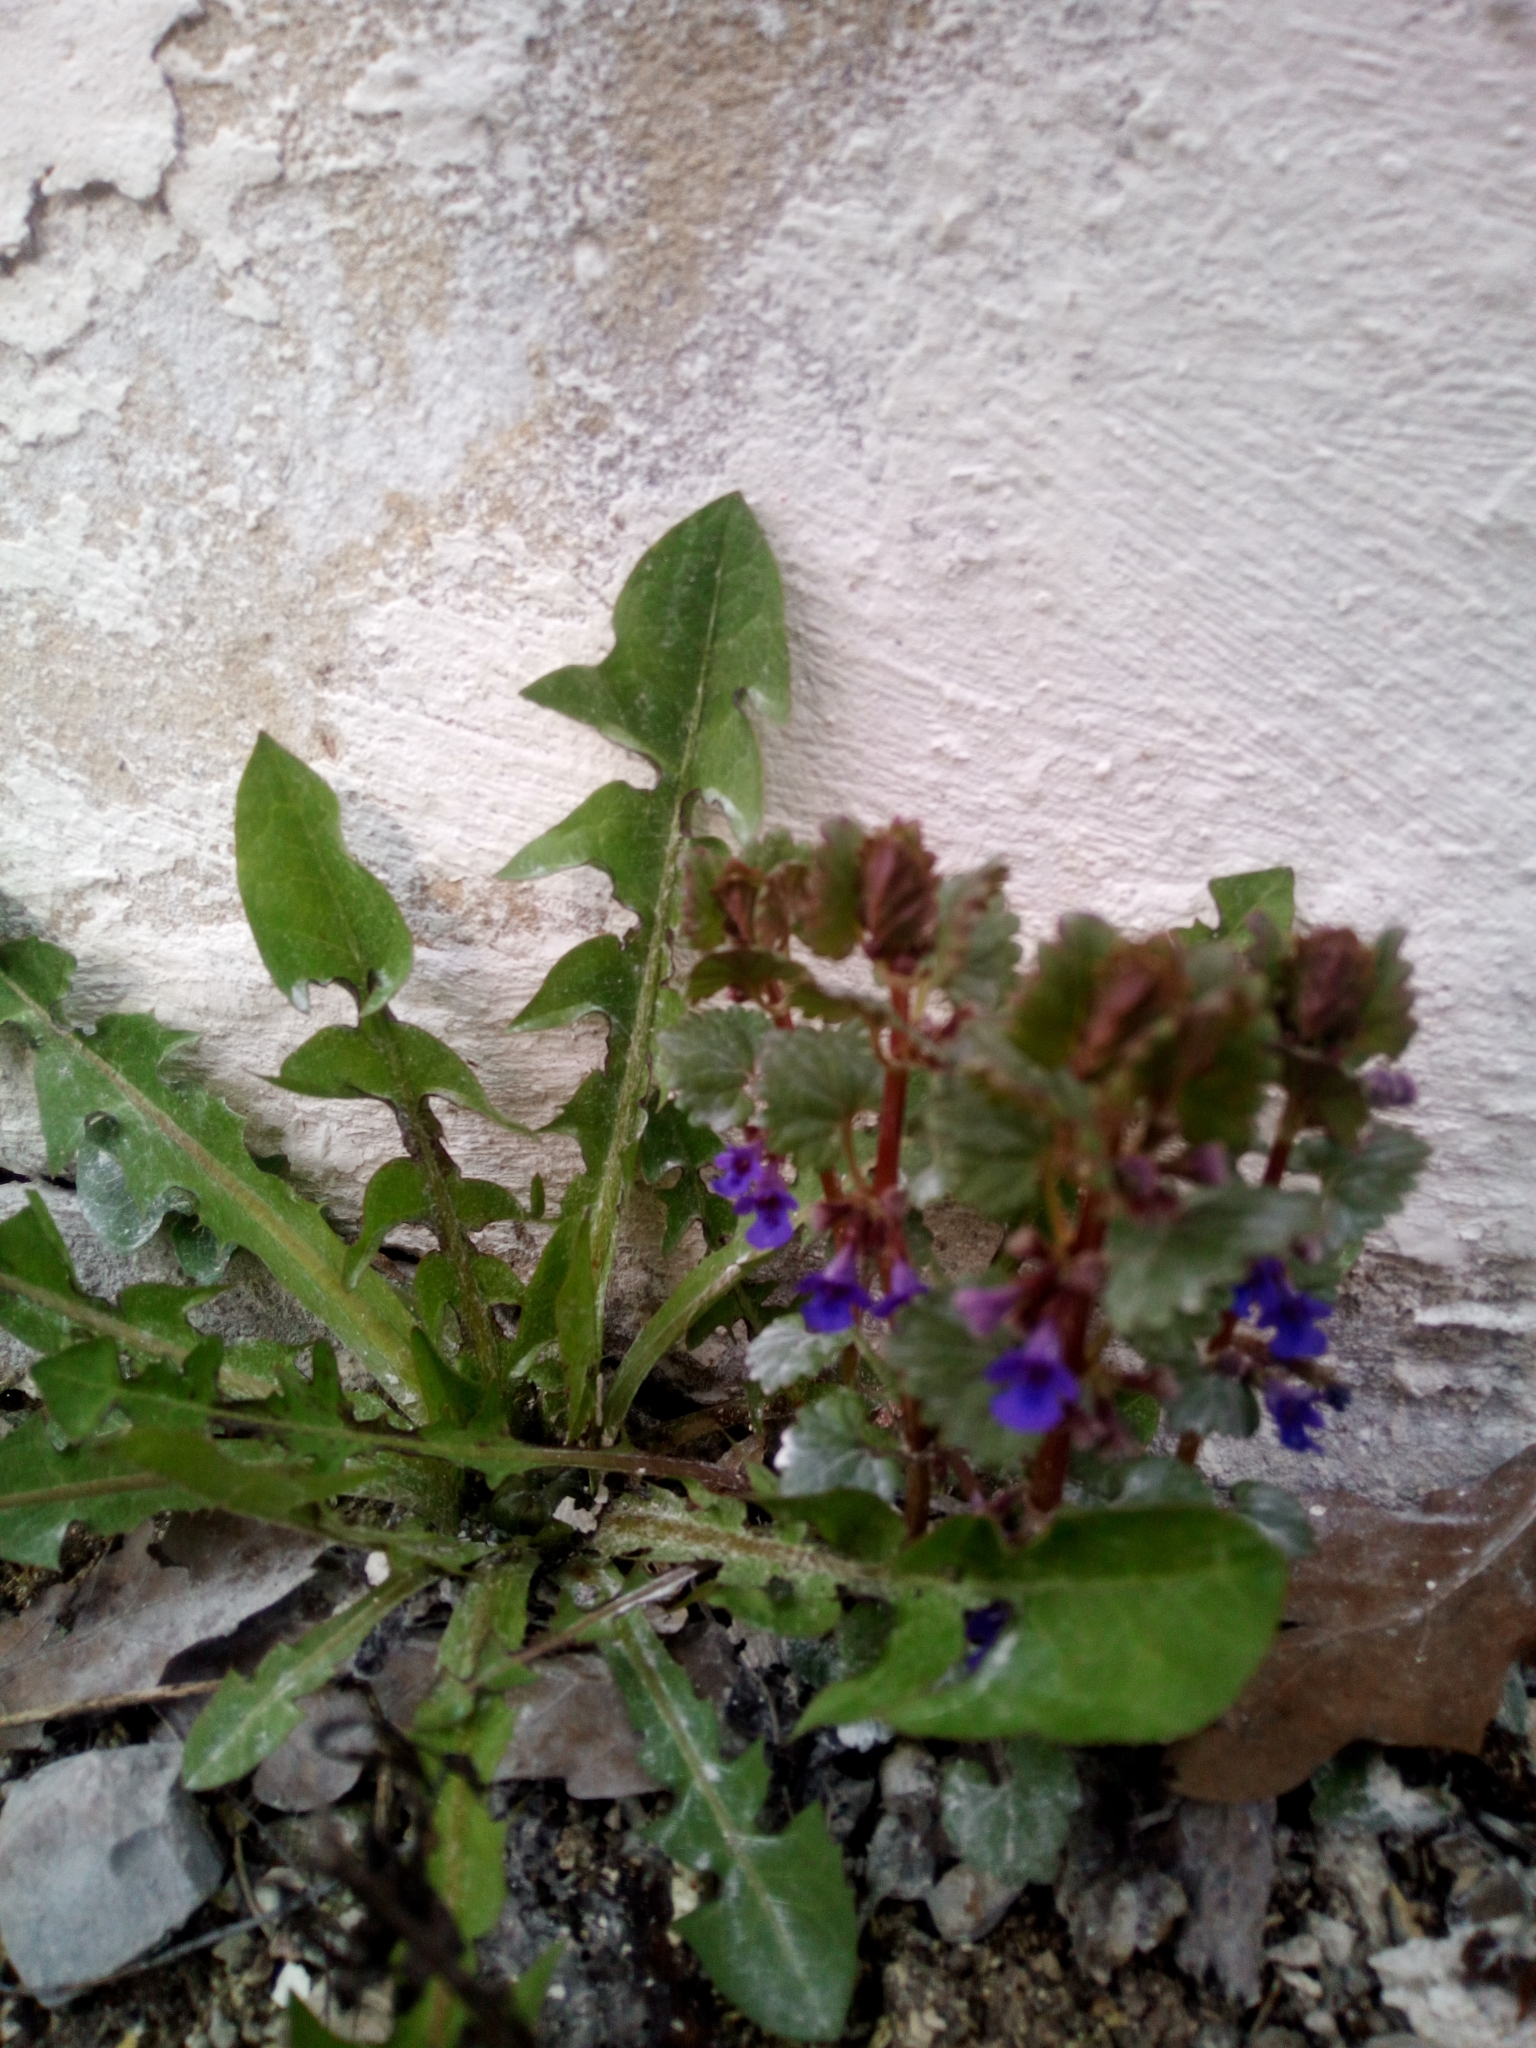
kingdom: Plantae
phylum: Tracheophyta
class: Magnoliopsida
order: Lamiales
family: Lamiaceae
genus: Glechoma
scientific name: Glechoma hederacea
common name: Ground ivy
